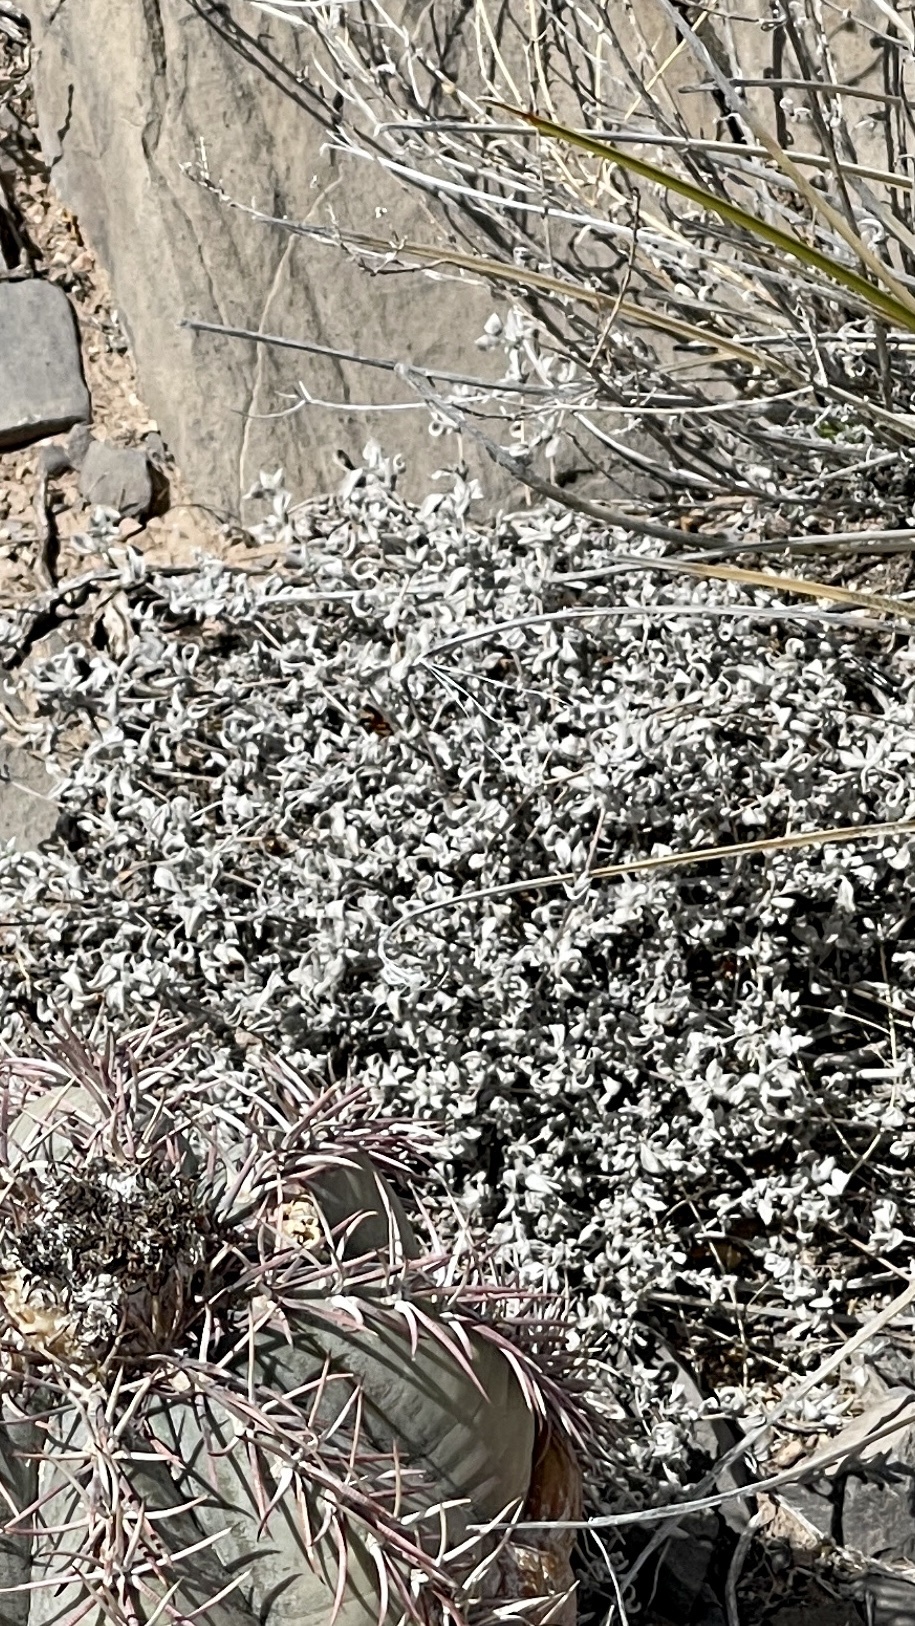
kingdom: Plantae
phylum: Tracheophyta
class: Magnoliopsida
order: Boraginales
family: Ehretiaceae
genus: Tiquilia
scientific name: Tiquilia canescens
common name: Hairy tiquilia
